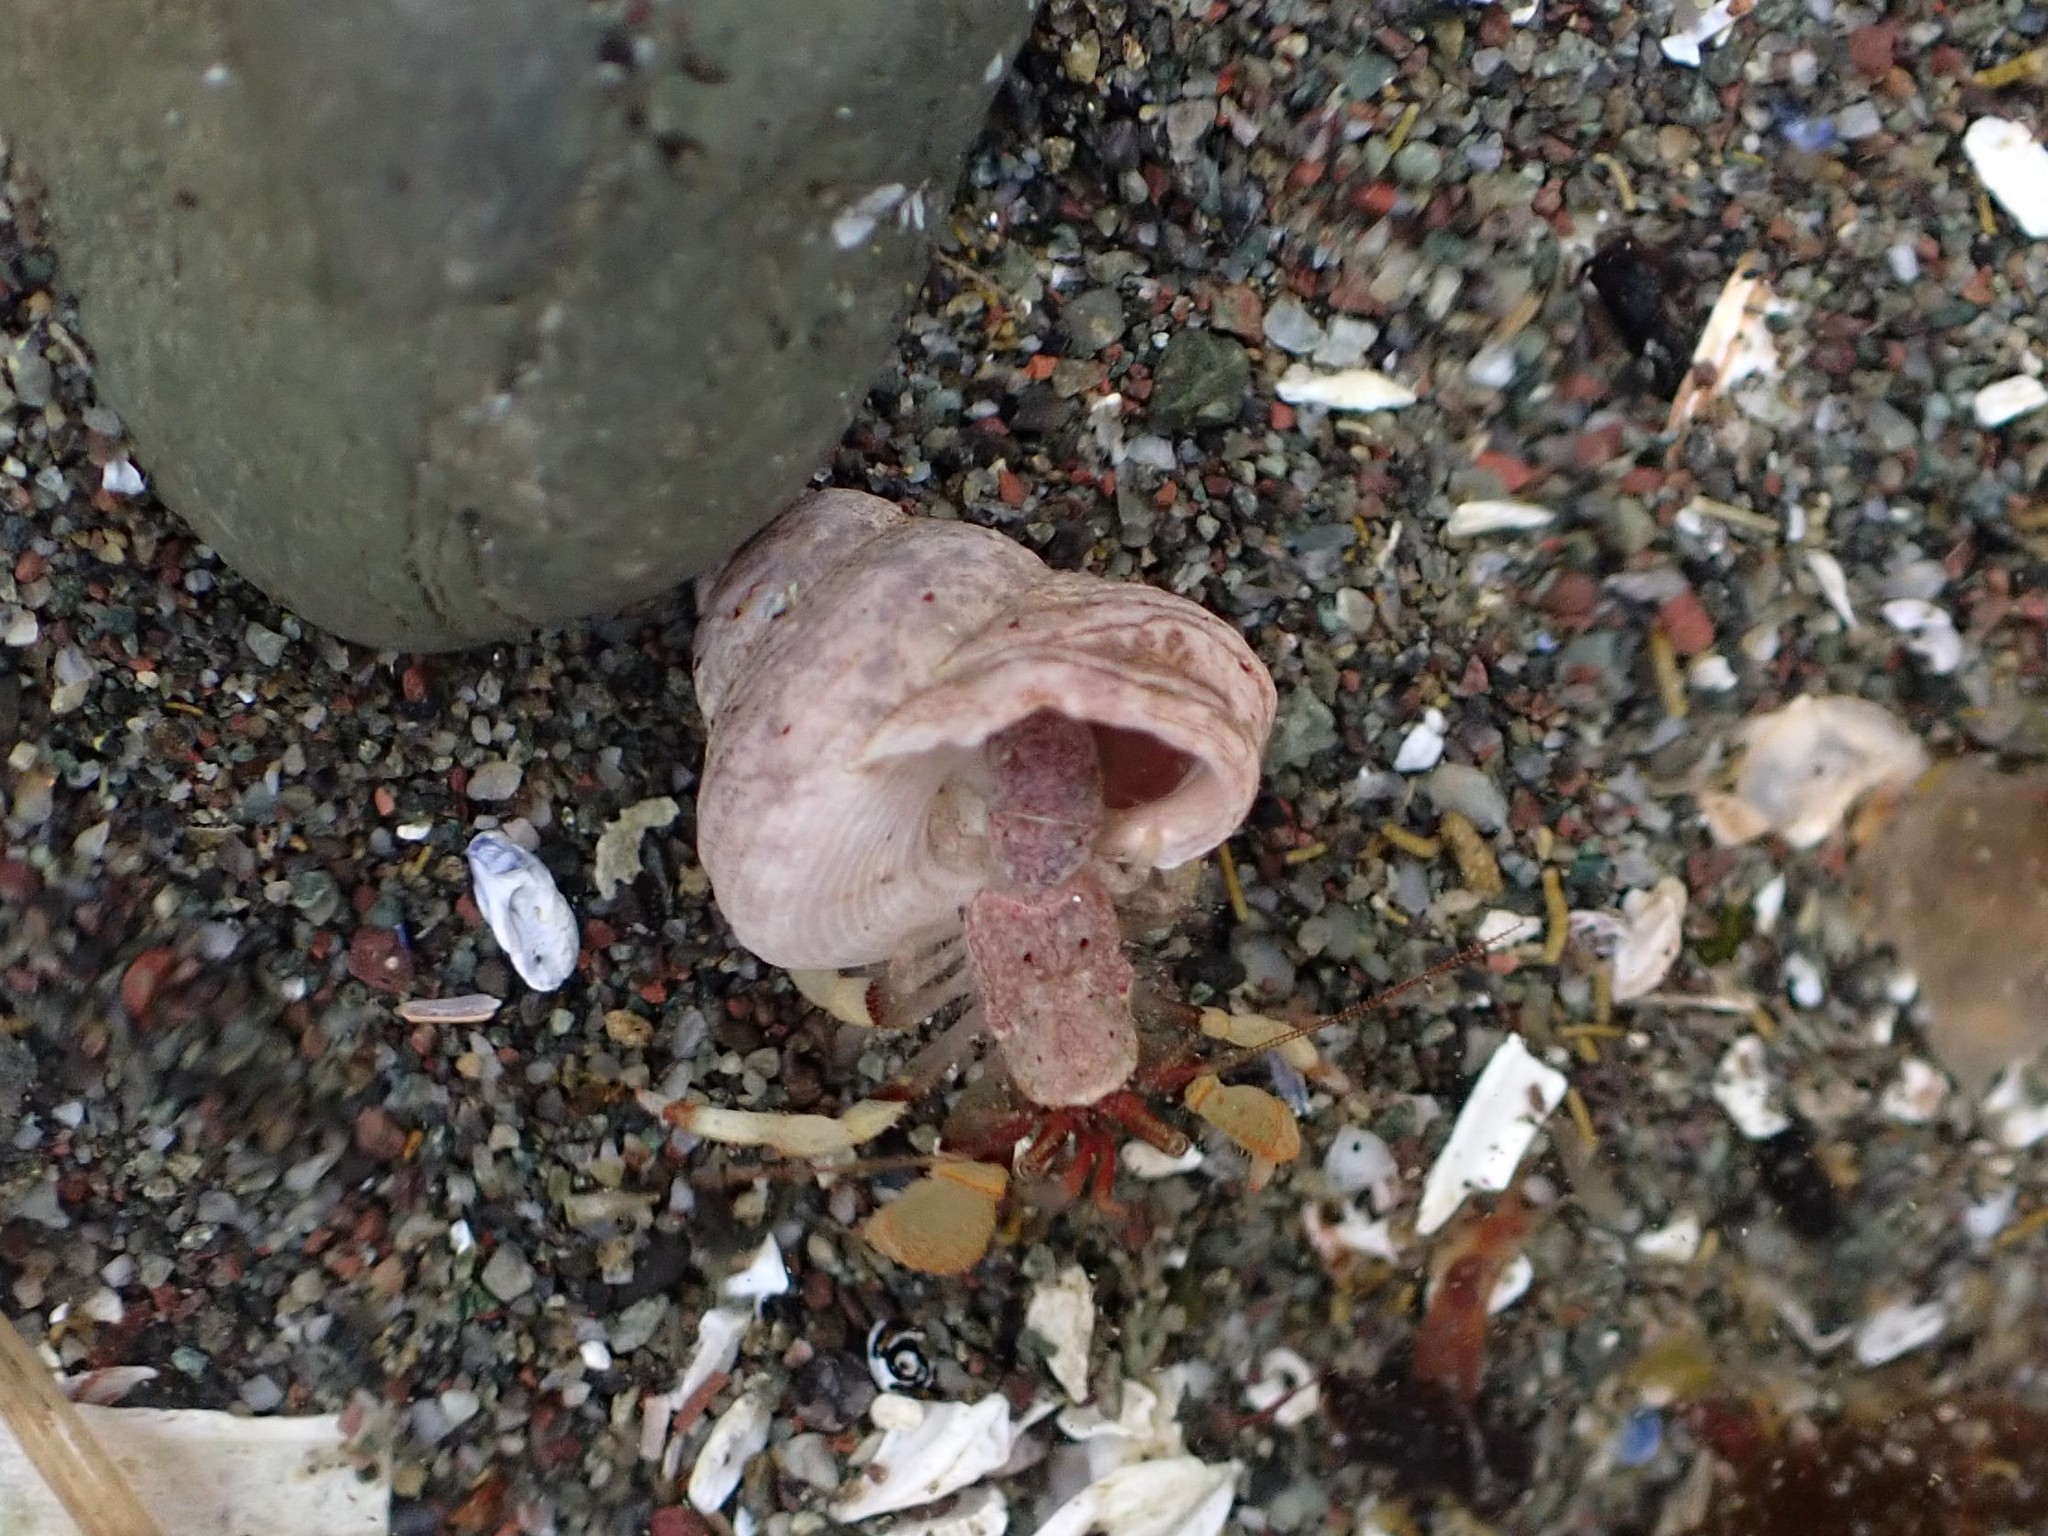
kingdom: Animalia
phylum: Arthropoda
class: Malacostraca
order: Decapoda
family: Paguridae
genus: Pagurus
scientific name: Pagurus beringanus
